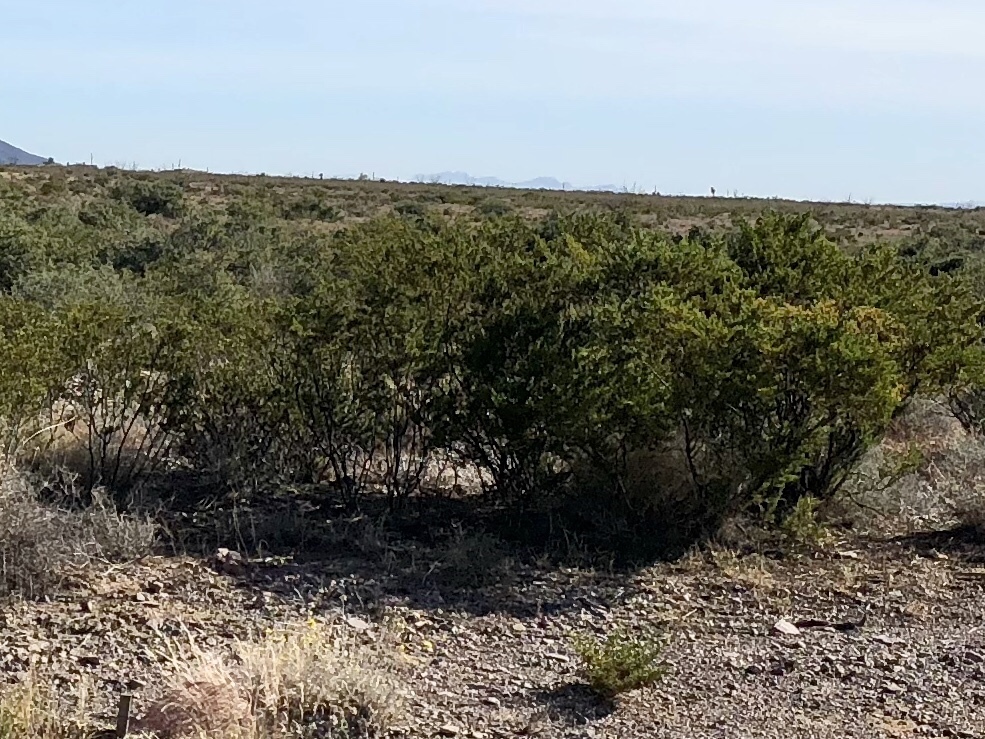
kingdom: Plantae
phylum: Tracheophyta
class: Magnoliopsida
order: Zygophyllales
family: Zygophyllaceae
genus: Larrea
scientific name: Larrea tridentata
